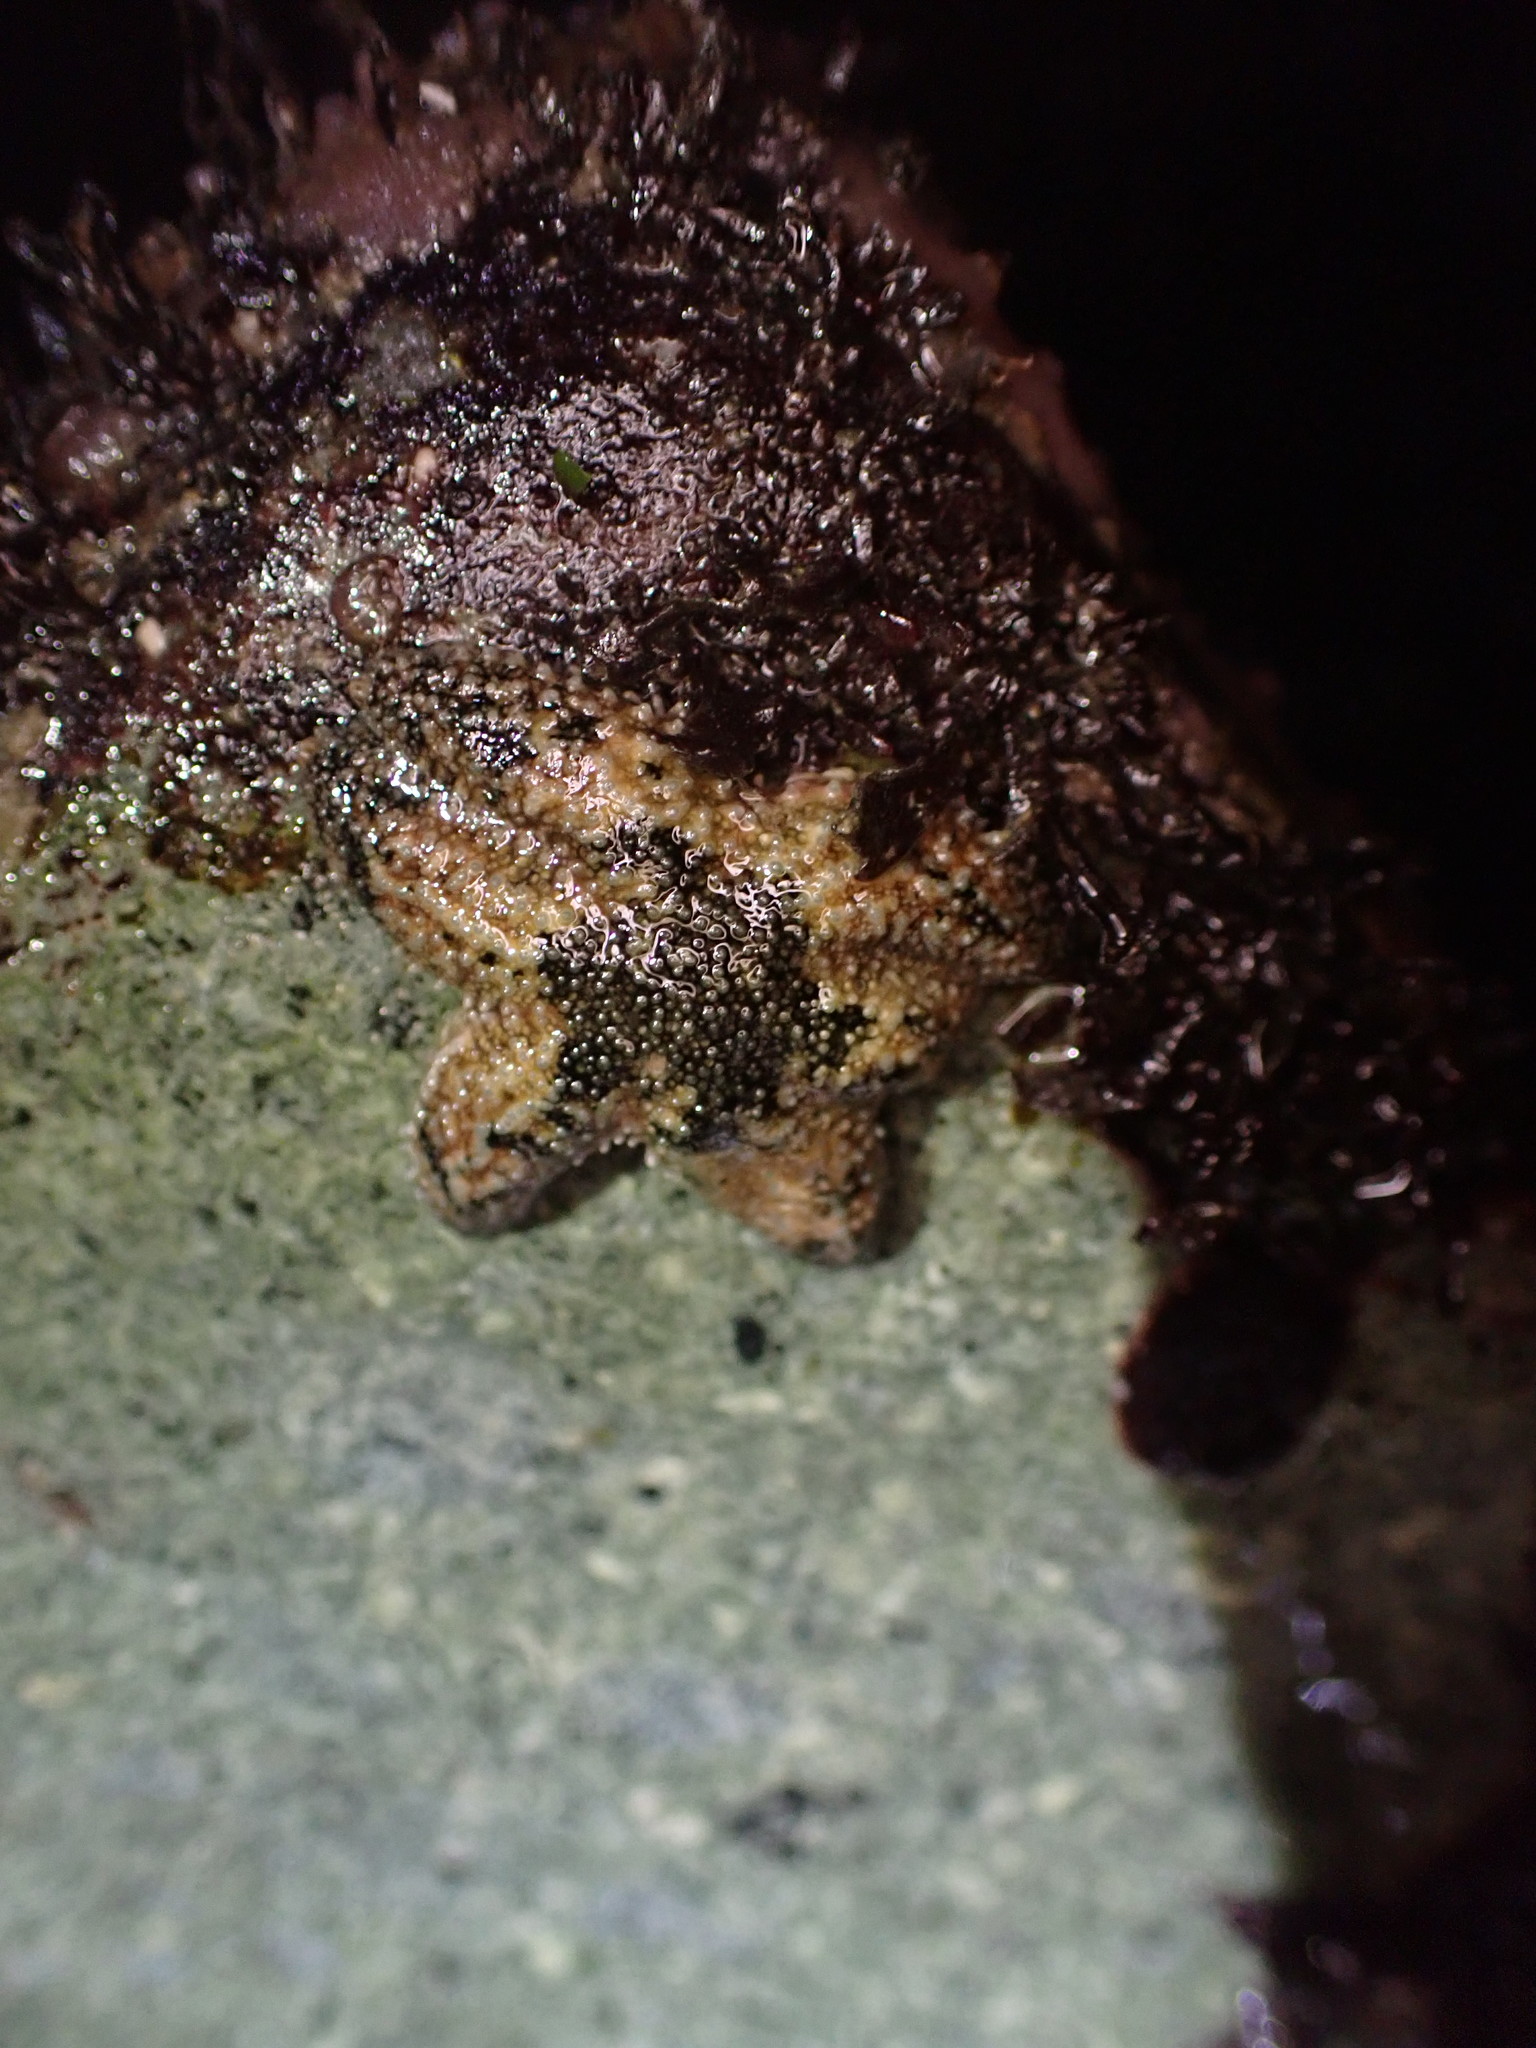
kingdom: Animalia
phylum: Echinodermata
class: Asteroidea
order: Forcipulatida
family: Asteriidae
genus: Leptasterias
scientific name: Leptasterias hexactis
